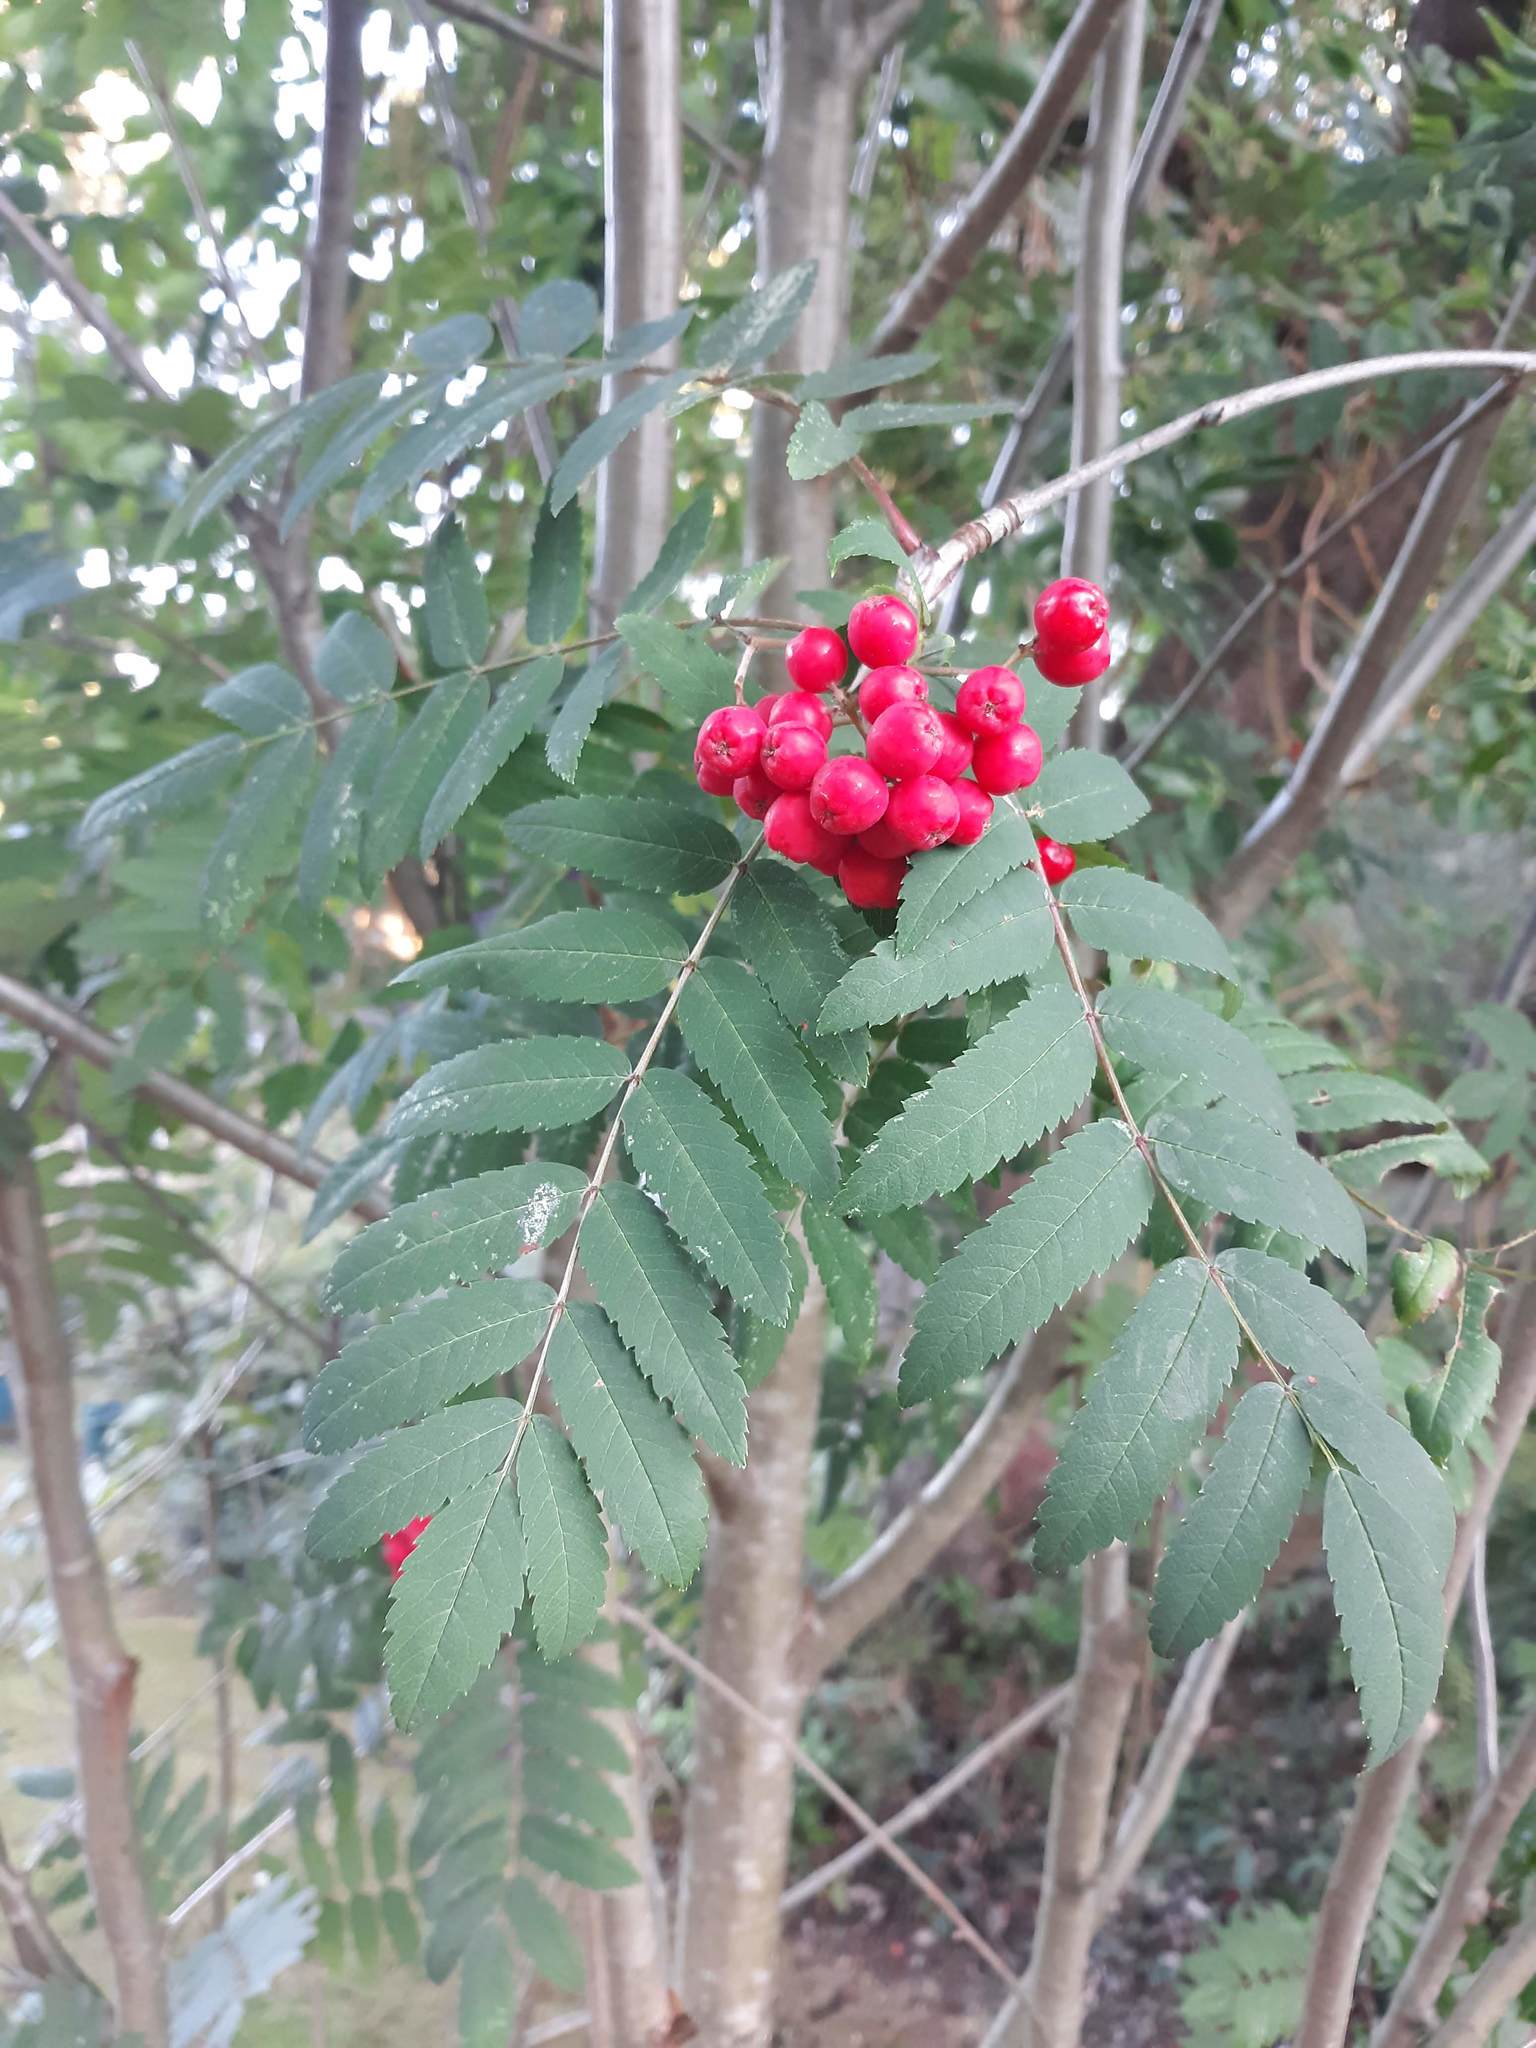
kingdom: Plantae
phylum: Tracheophyta
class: Magnoliopsida
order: Rosales
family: Rosaceae
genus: Sorbus
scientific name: Sorbus aucuparia
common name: Rowan
